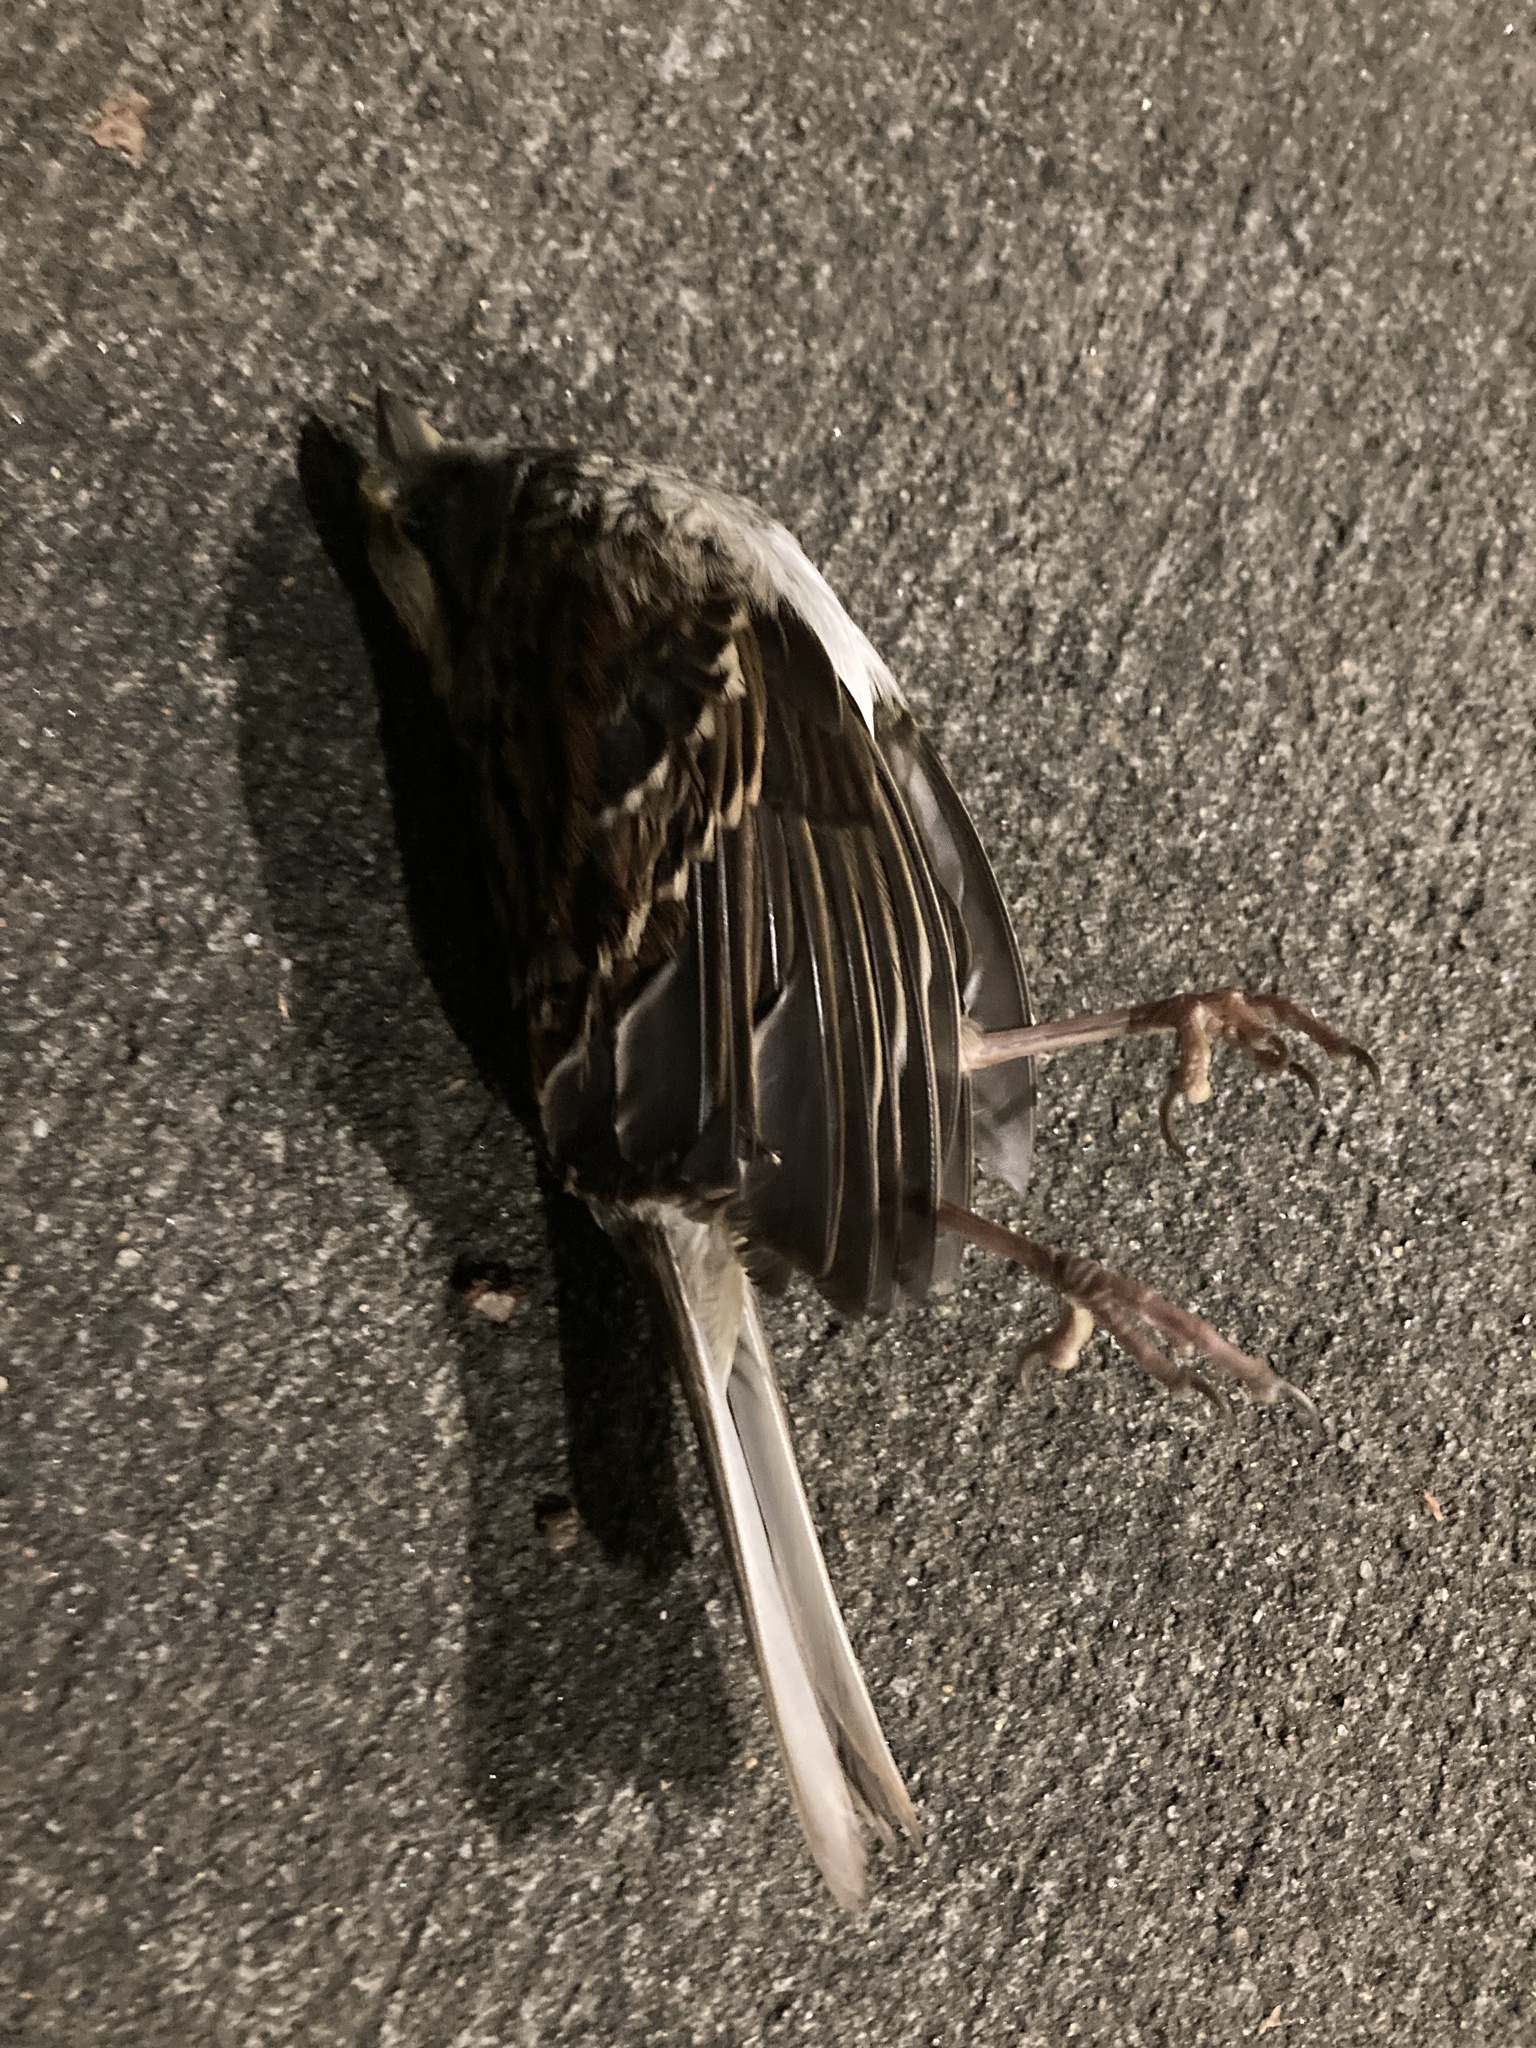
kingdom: Animalia
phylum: Chordata
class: Aves
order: Passeriformes
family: Passerellidae
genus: Zonotrichia
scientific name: Zonotrichia albicollis
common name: White-throated sparrow
